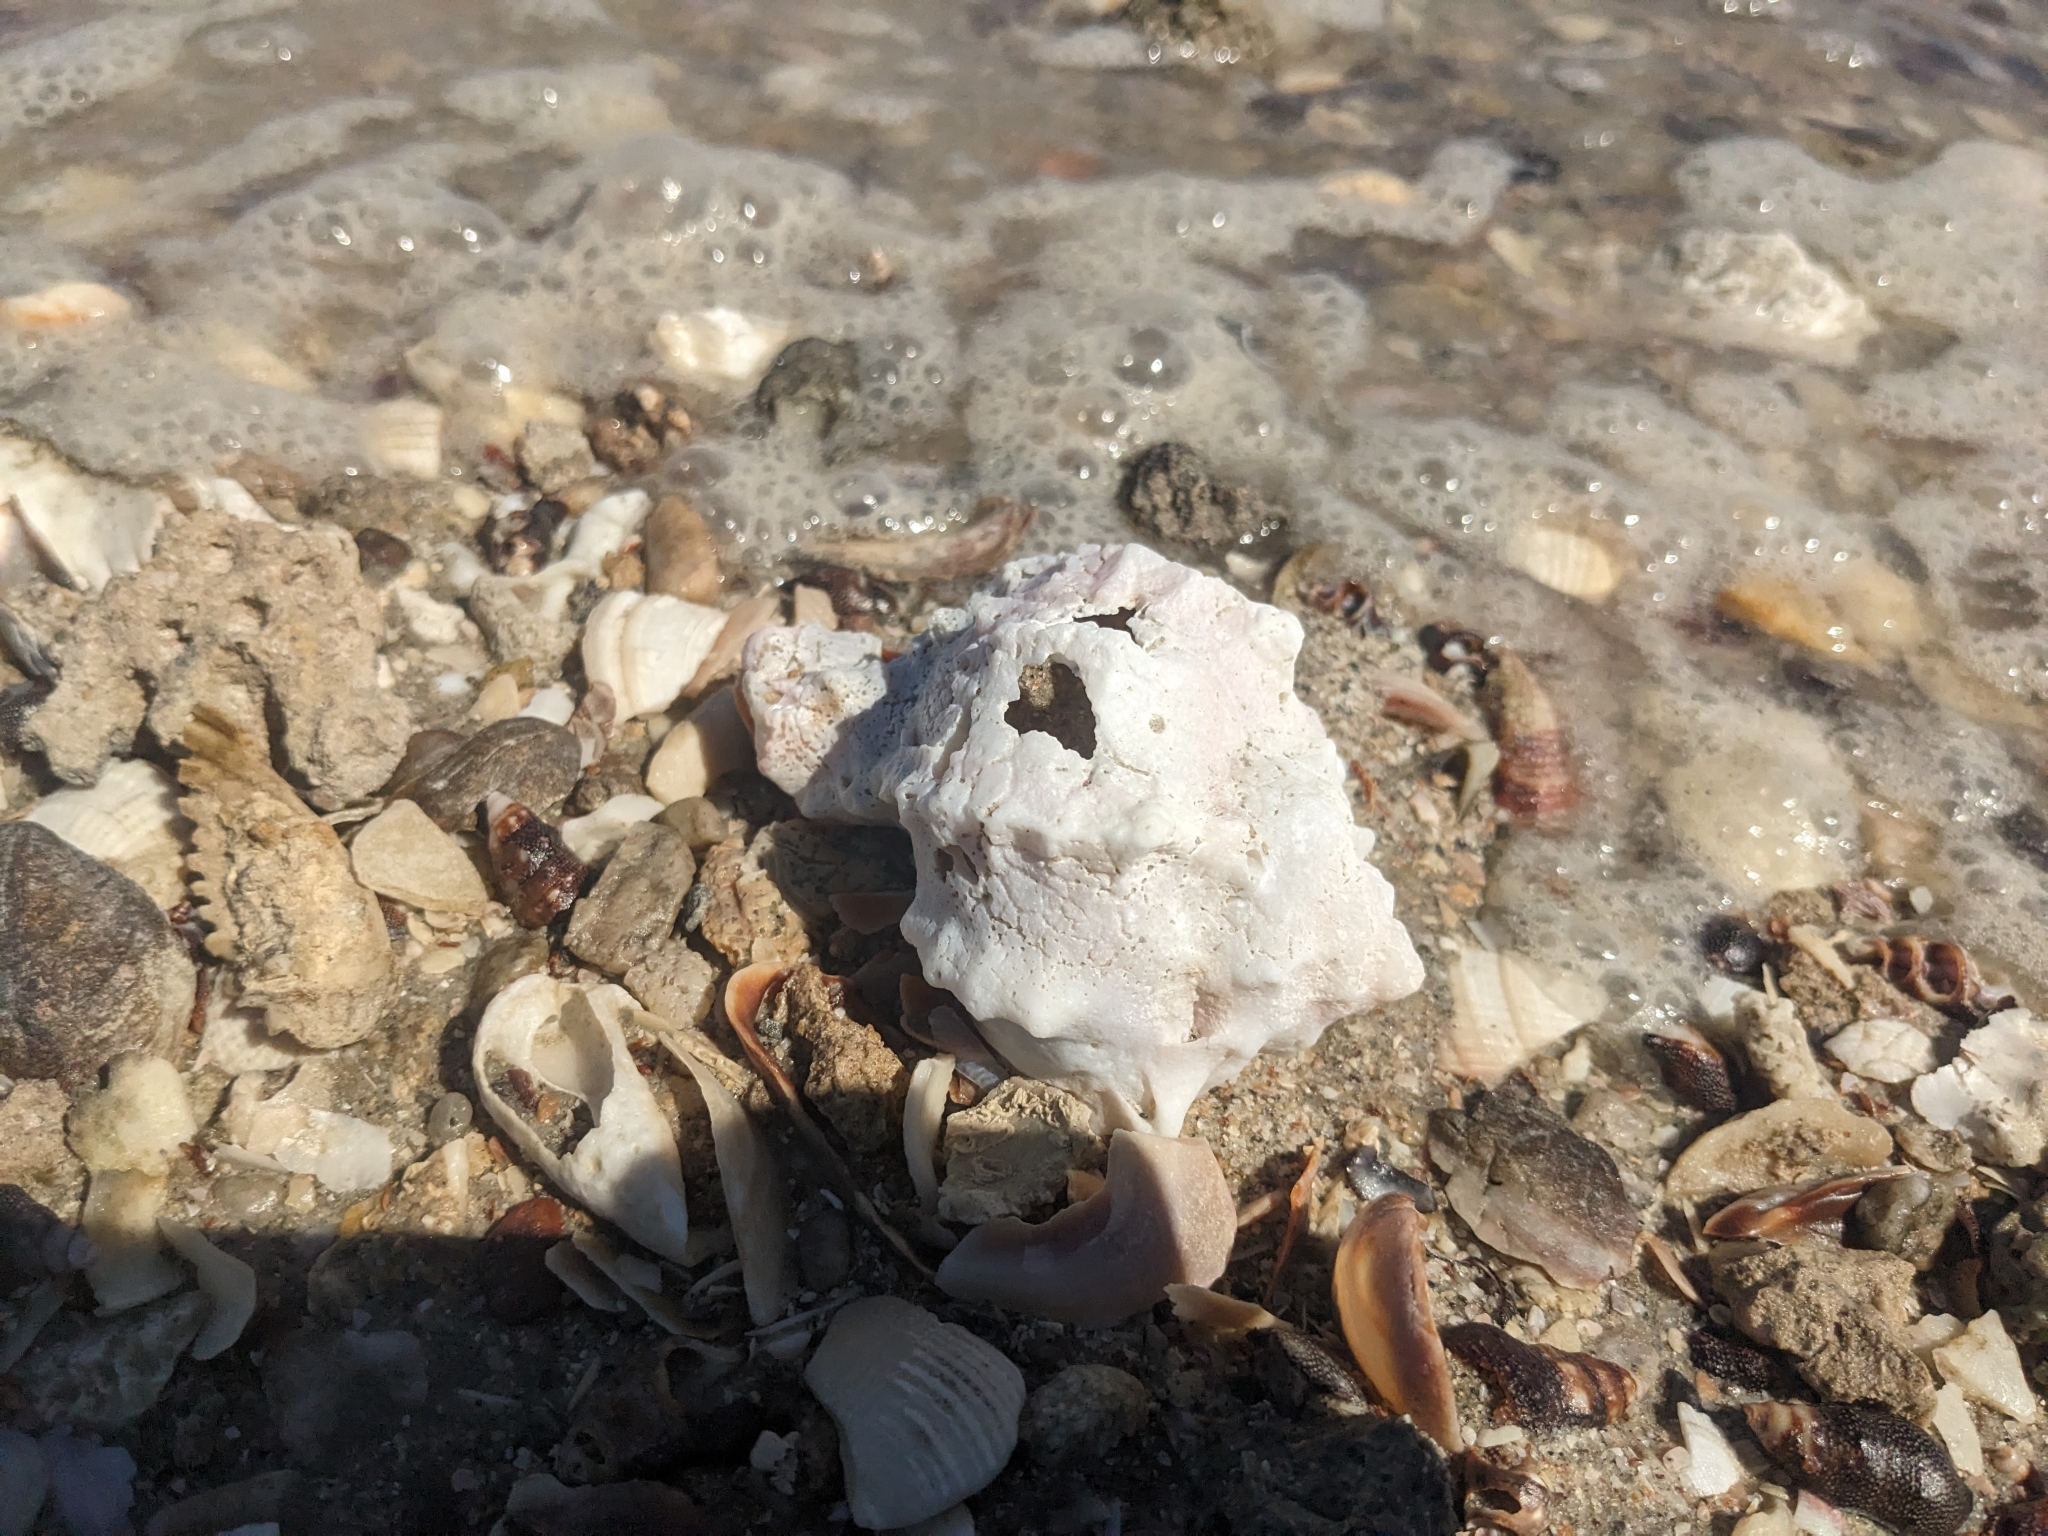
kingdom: Animalia
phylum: Mollusca
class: Gastropoda
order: Neogastropoda
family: Muricidae
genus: Phyllonotus
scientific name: Phyllonotus erythrostomus
